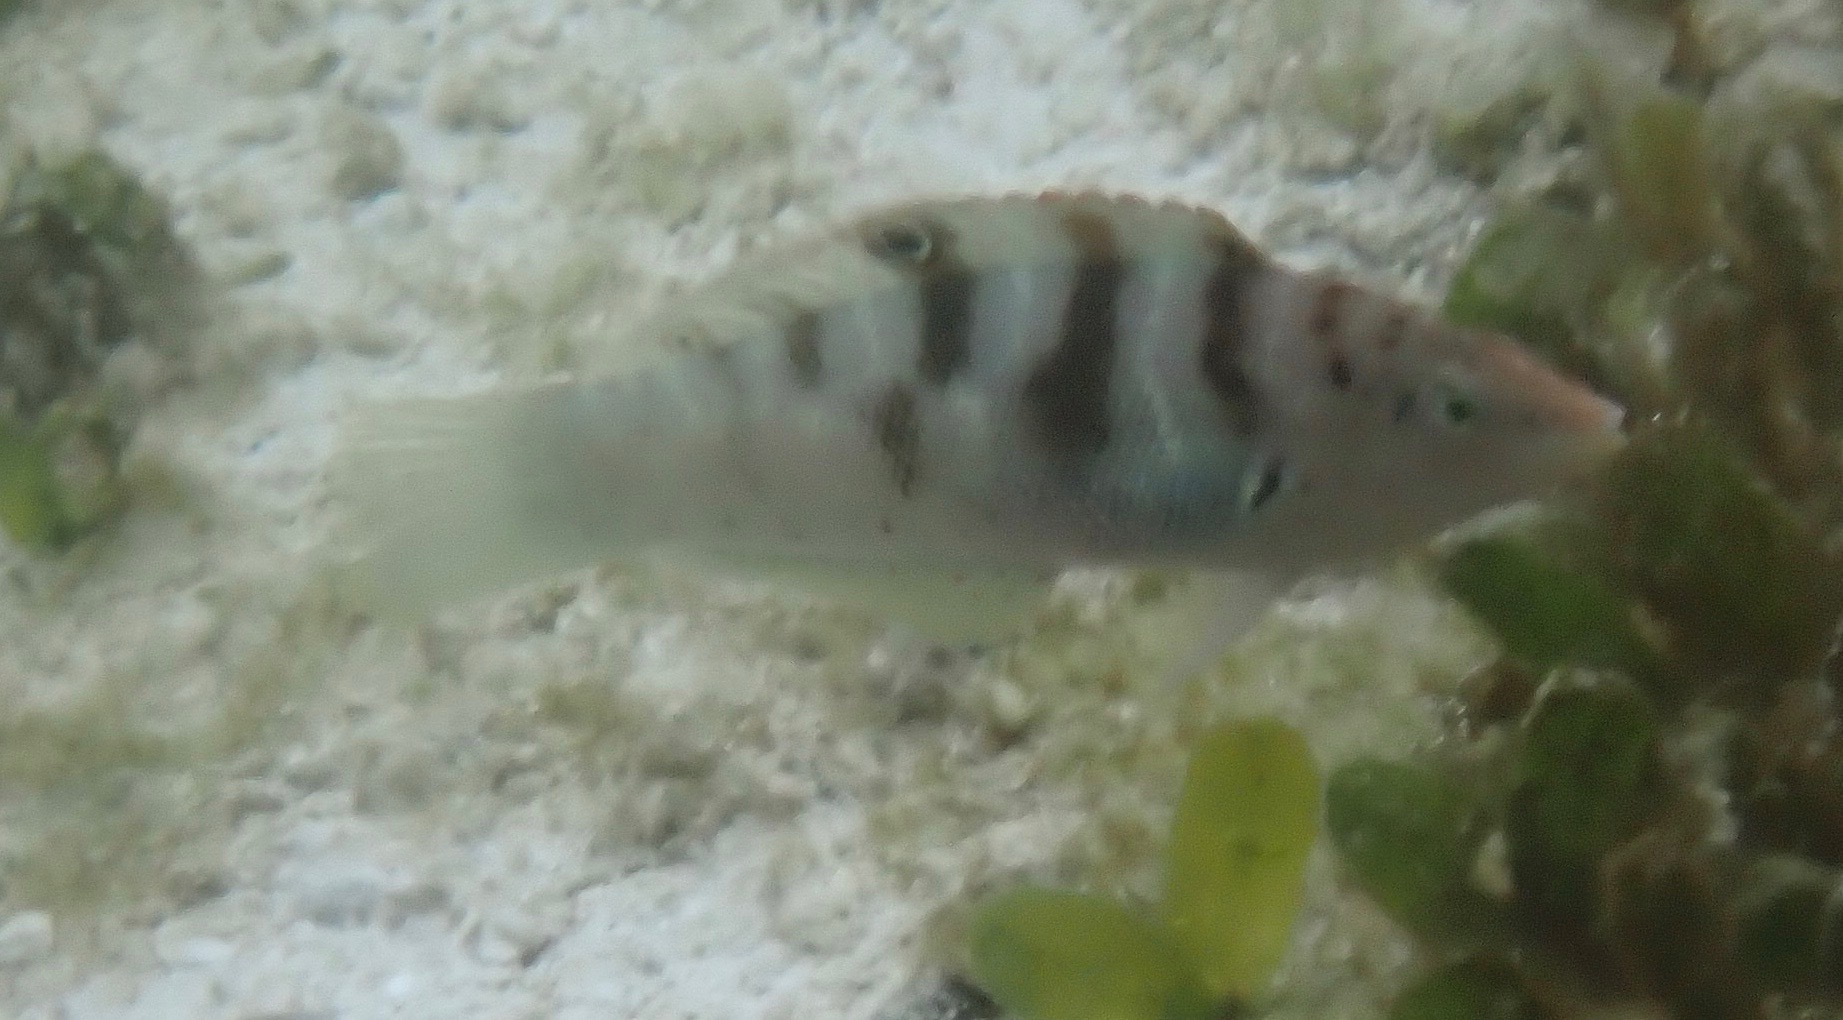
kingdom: Animalia
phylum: Chordata
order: Perciformes
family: Labridae
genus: Coris
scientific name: Coris batuensis
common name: Batu coris
